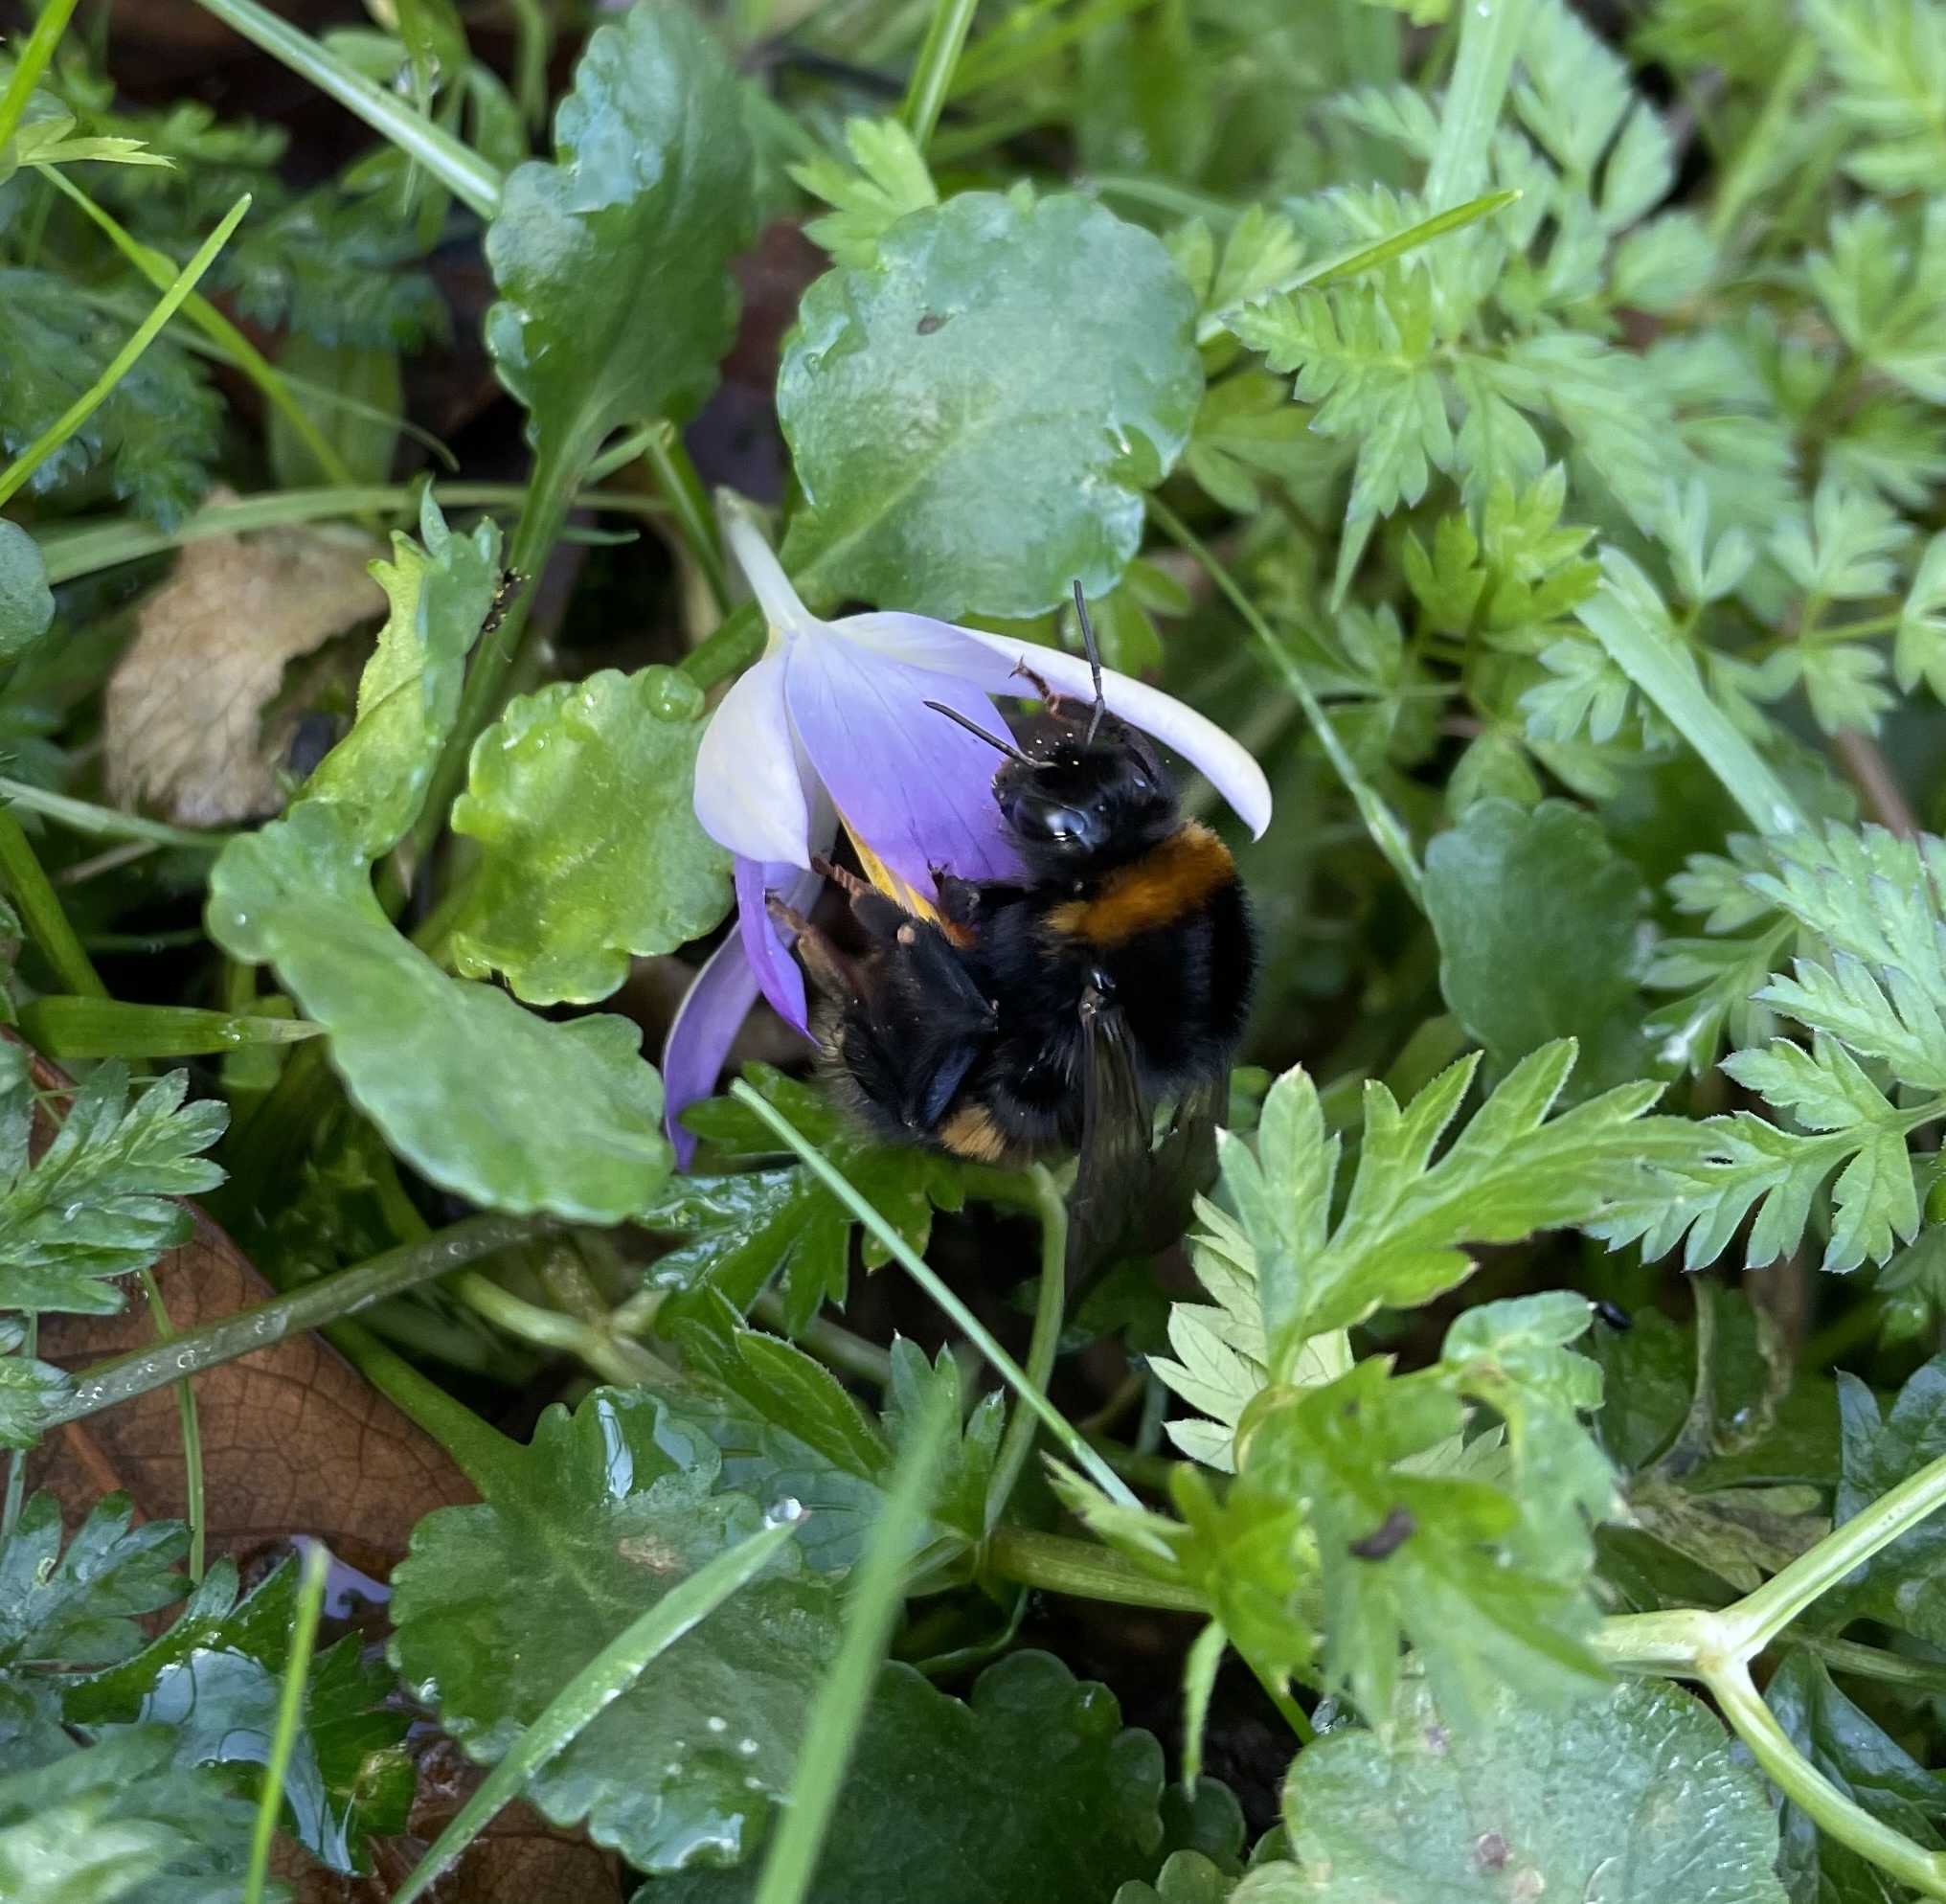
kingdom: Animalia
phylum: Arthropoda
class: Insecta
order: Hymenoptera
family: Apidae
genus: Bombus
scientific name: Bombus terrestris
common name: Buff-tailed bumblebee
